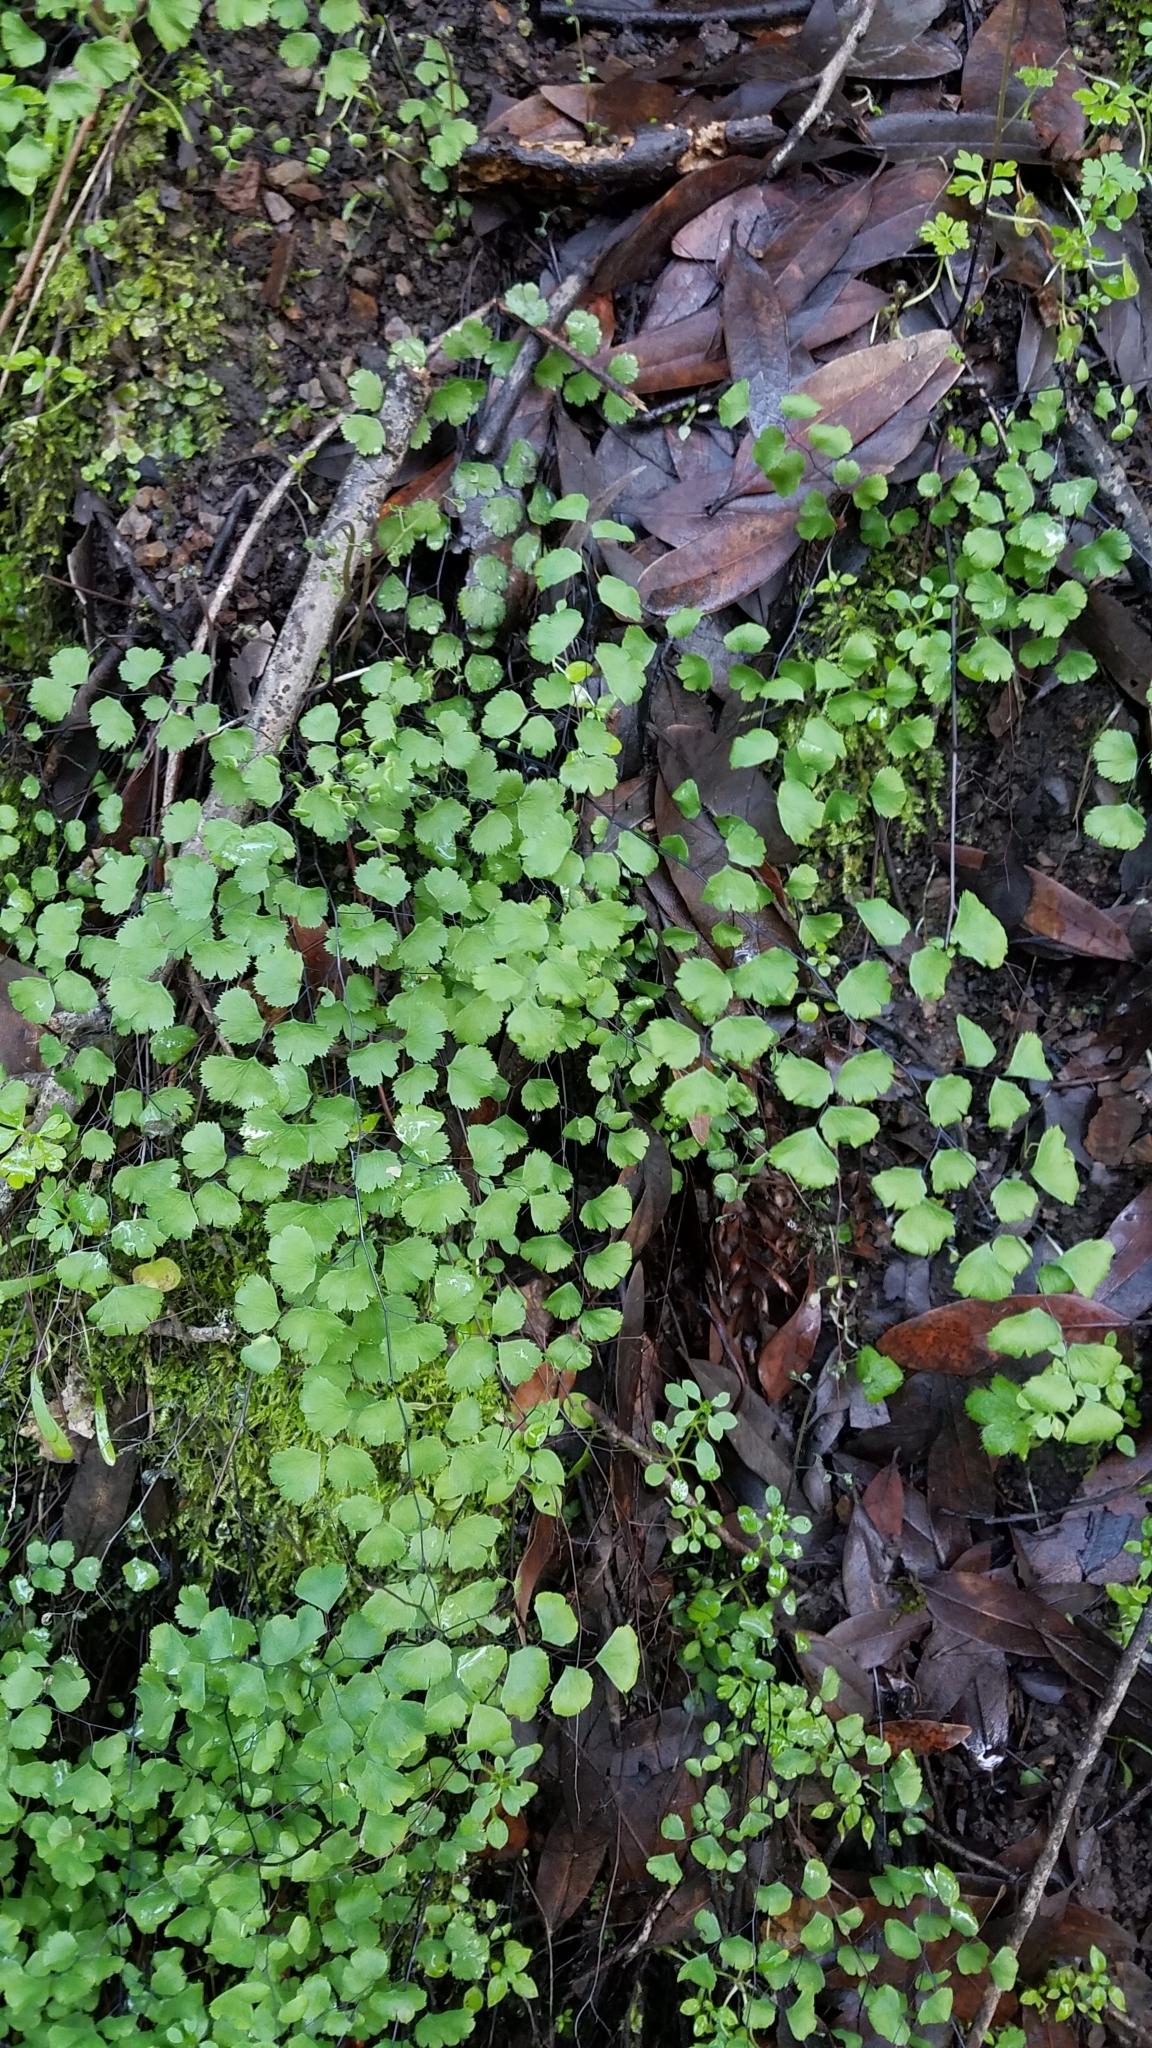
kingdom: Plantae
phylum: Tracheophyta
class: Polypodiopsida
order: Polypodiales
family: Pteridaceae
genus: Adiantum
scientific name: Adiantum jordanii
